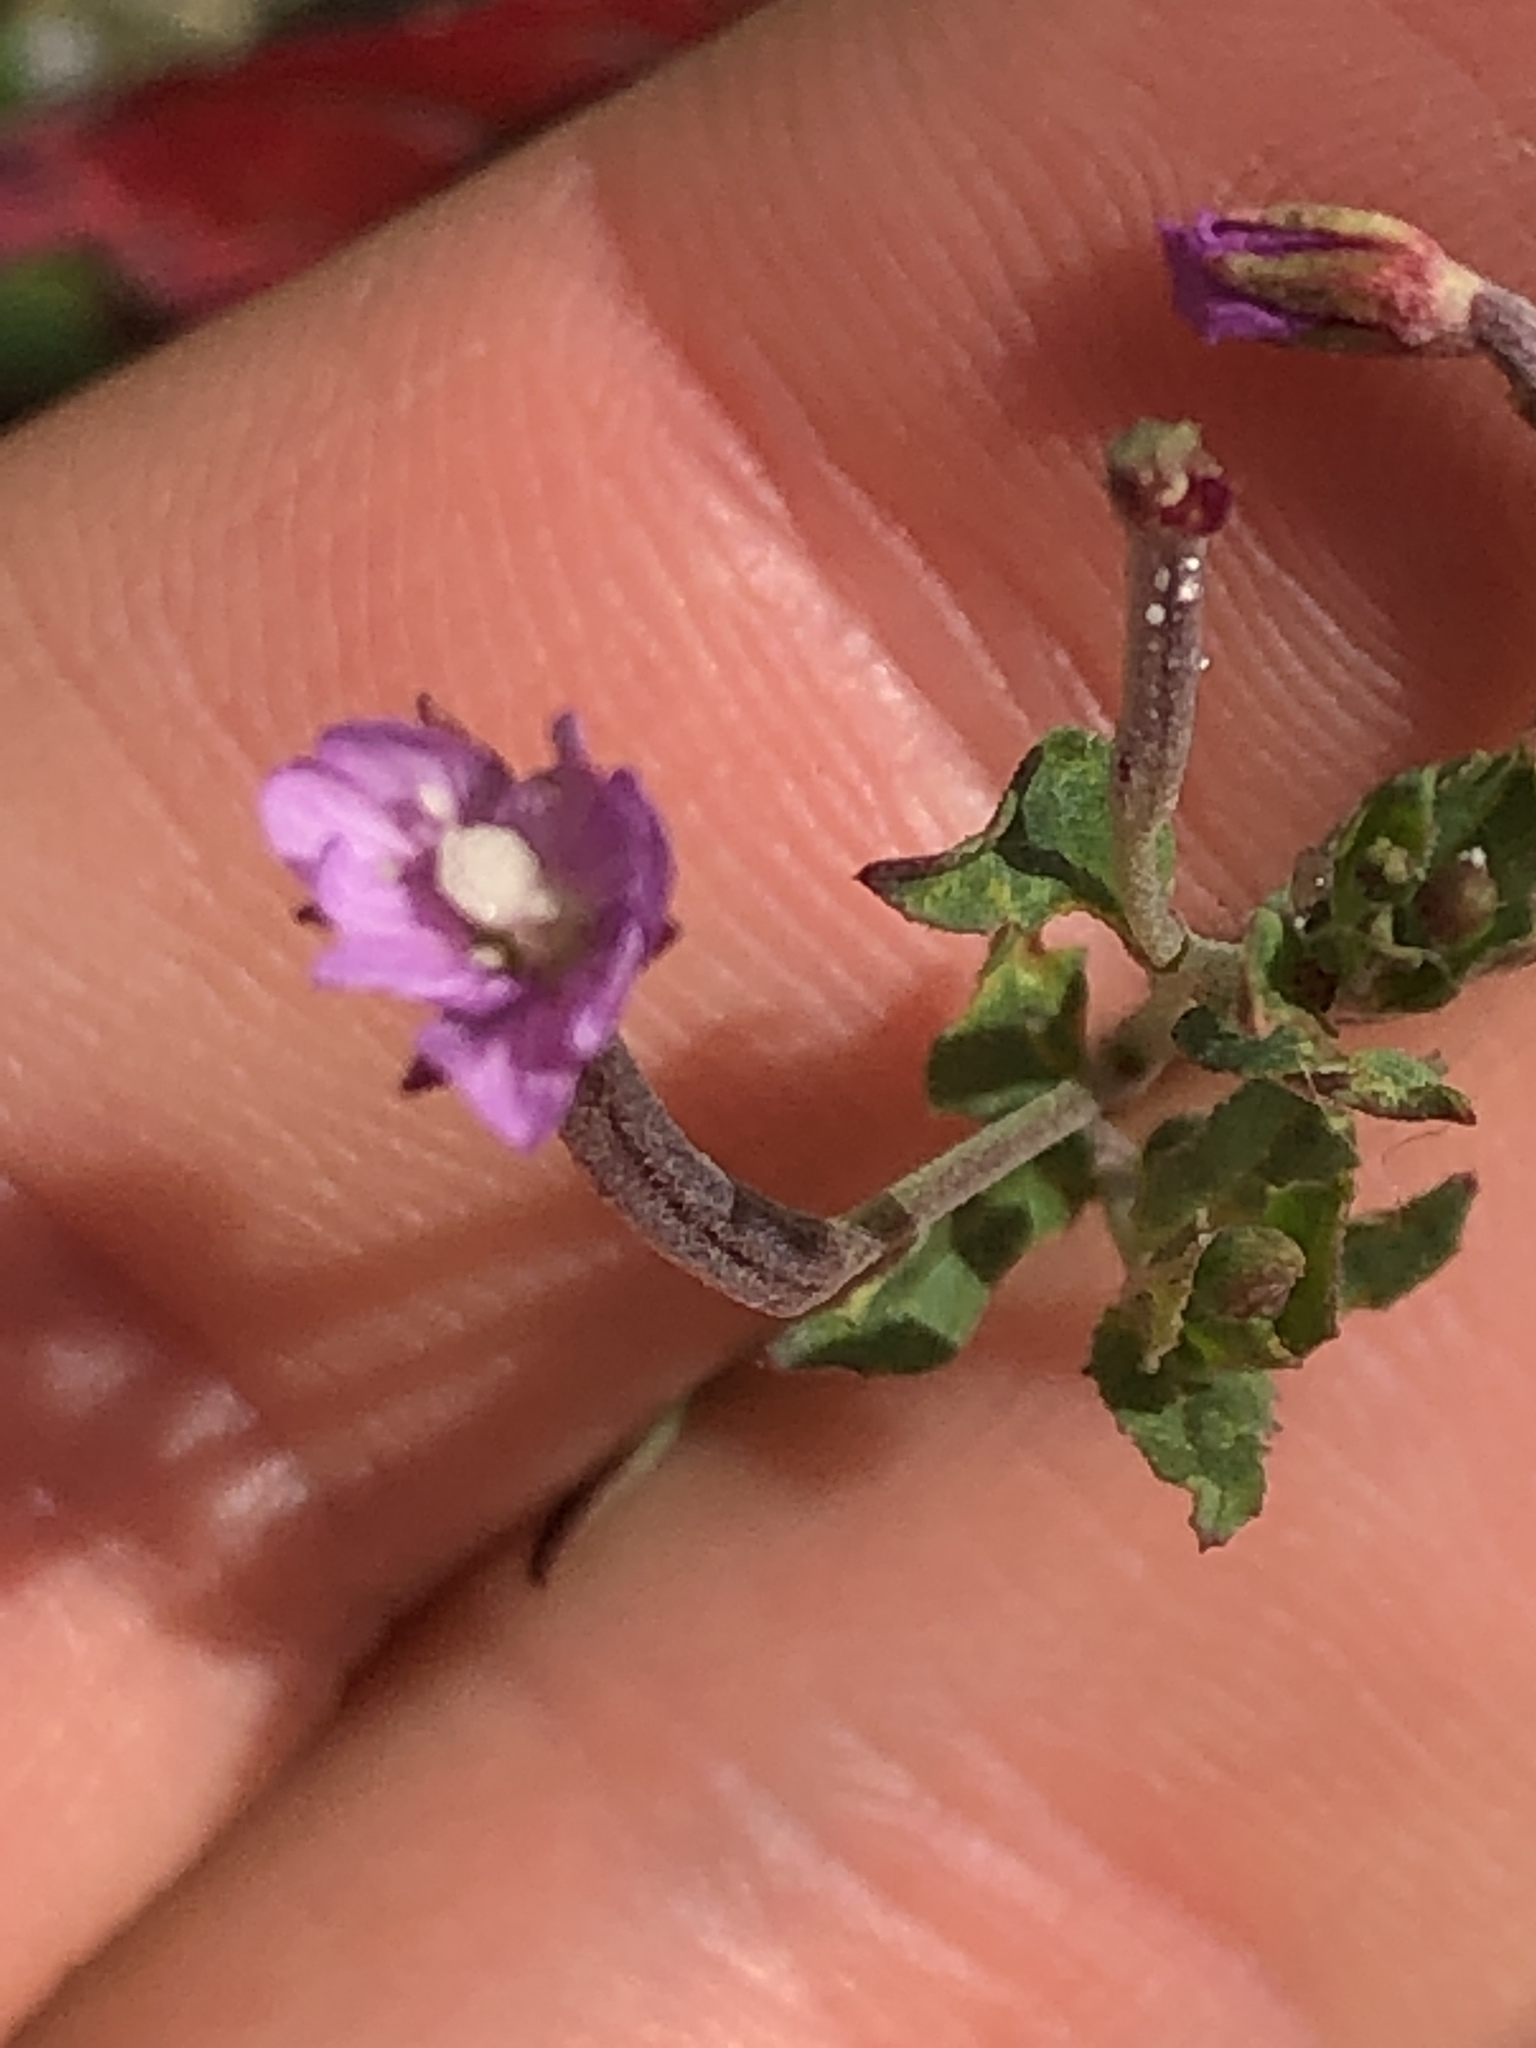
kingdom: Plantae
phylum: Tracheophyta
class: Magnoliopsida
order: Myrtales
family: Onagraceae
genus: Epilobium
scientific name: Epilobium hirsutum
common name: Great willowherb
